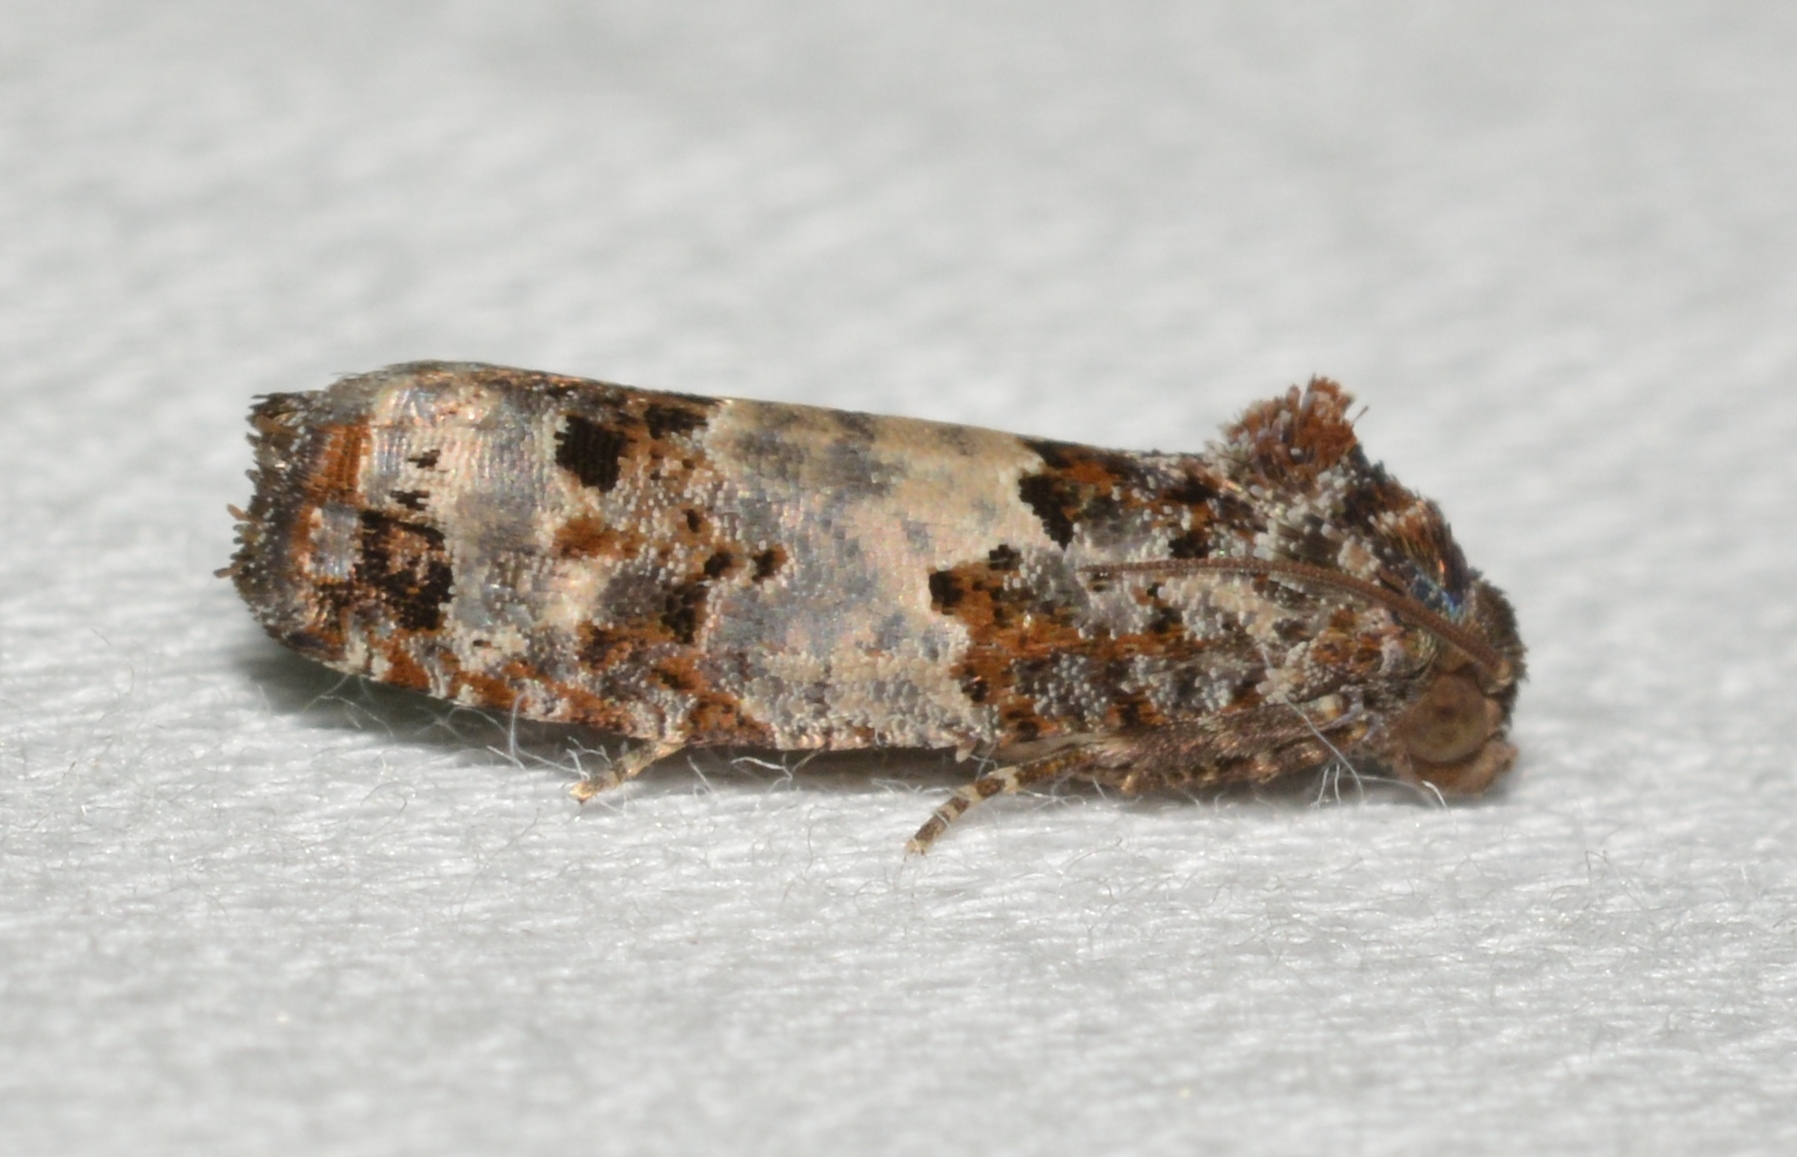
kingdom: Animalia
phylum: Arthropoda
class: Insecta
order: Lepidoptera
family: Tortricidae
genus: Epiblema
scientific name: Epiblema carolinana
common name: Gray-blotched epiblema moth
